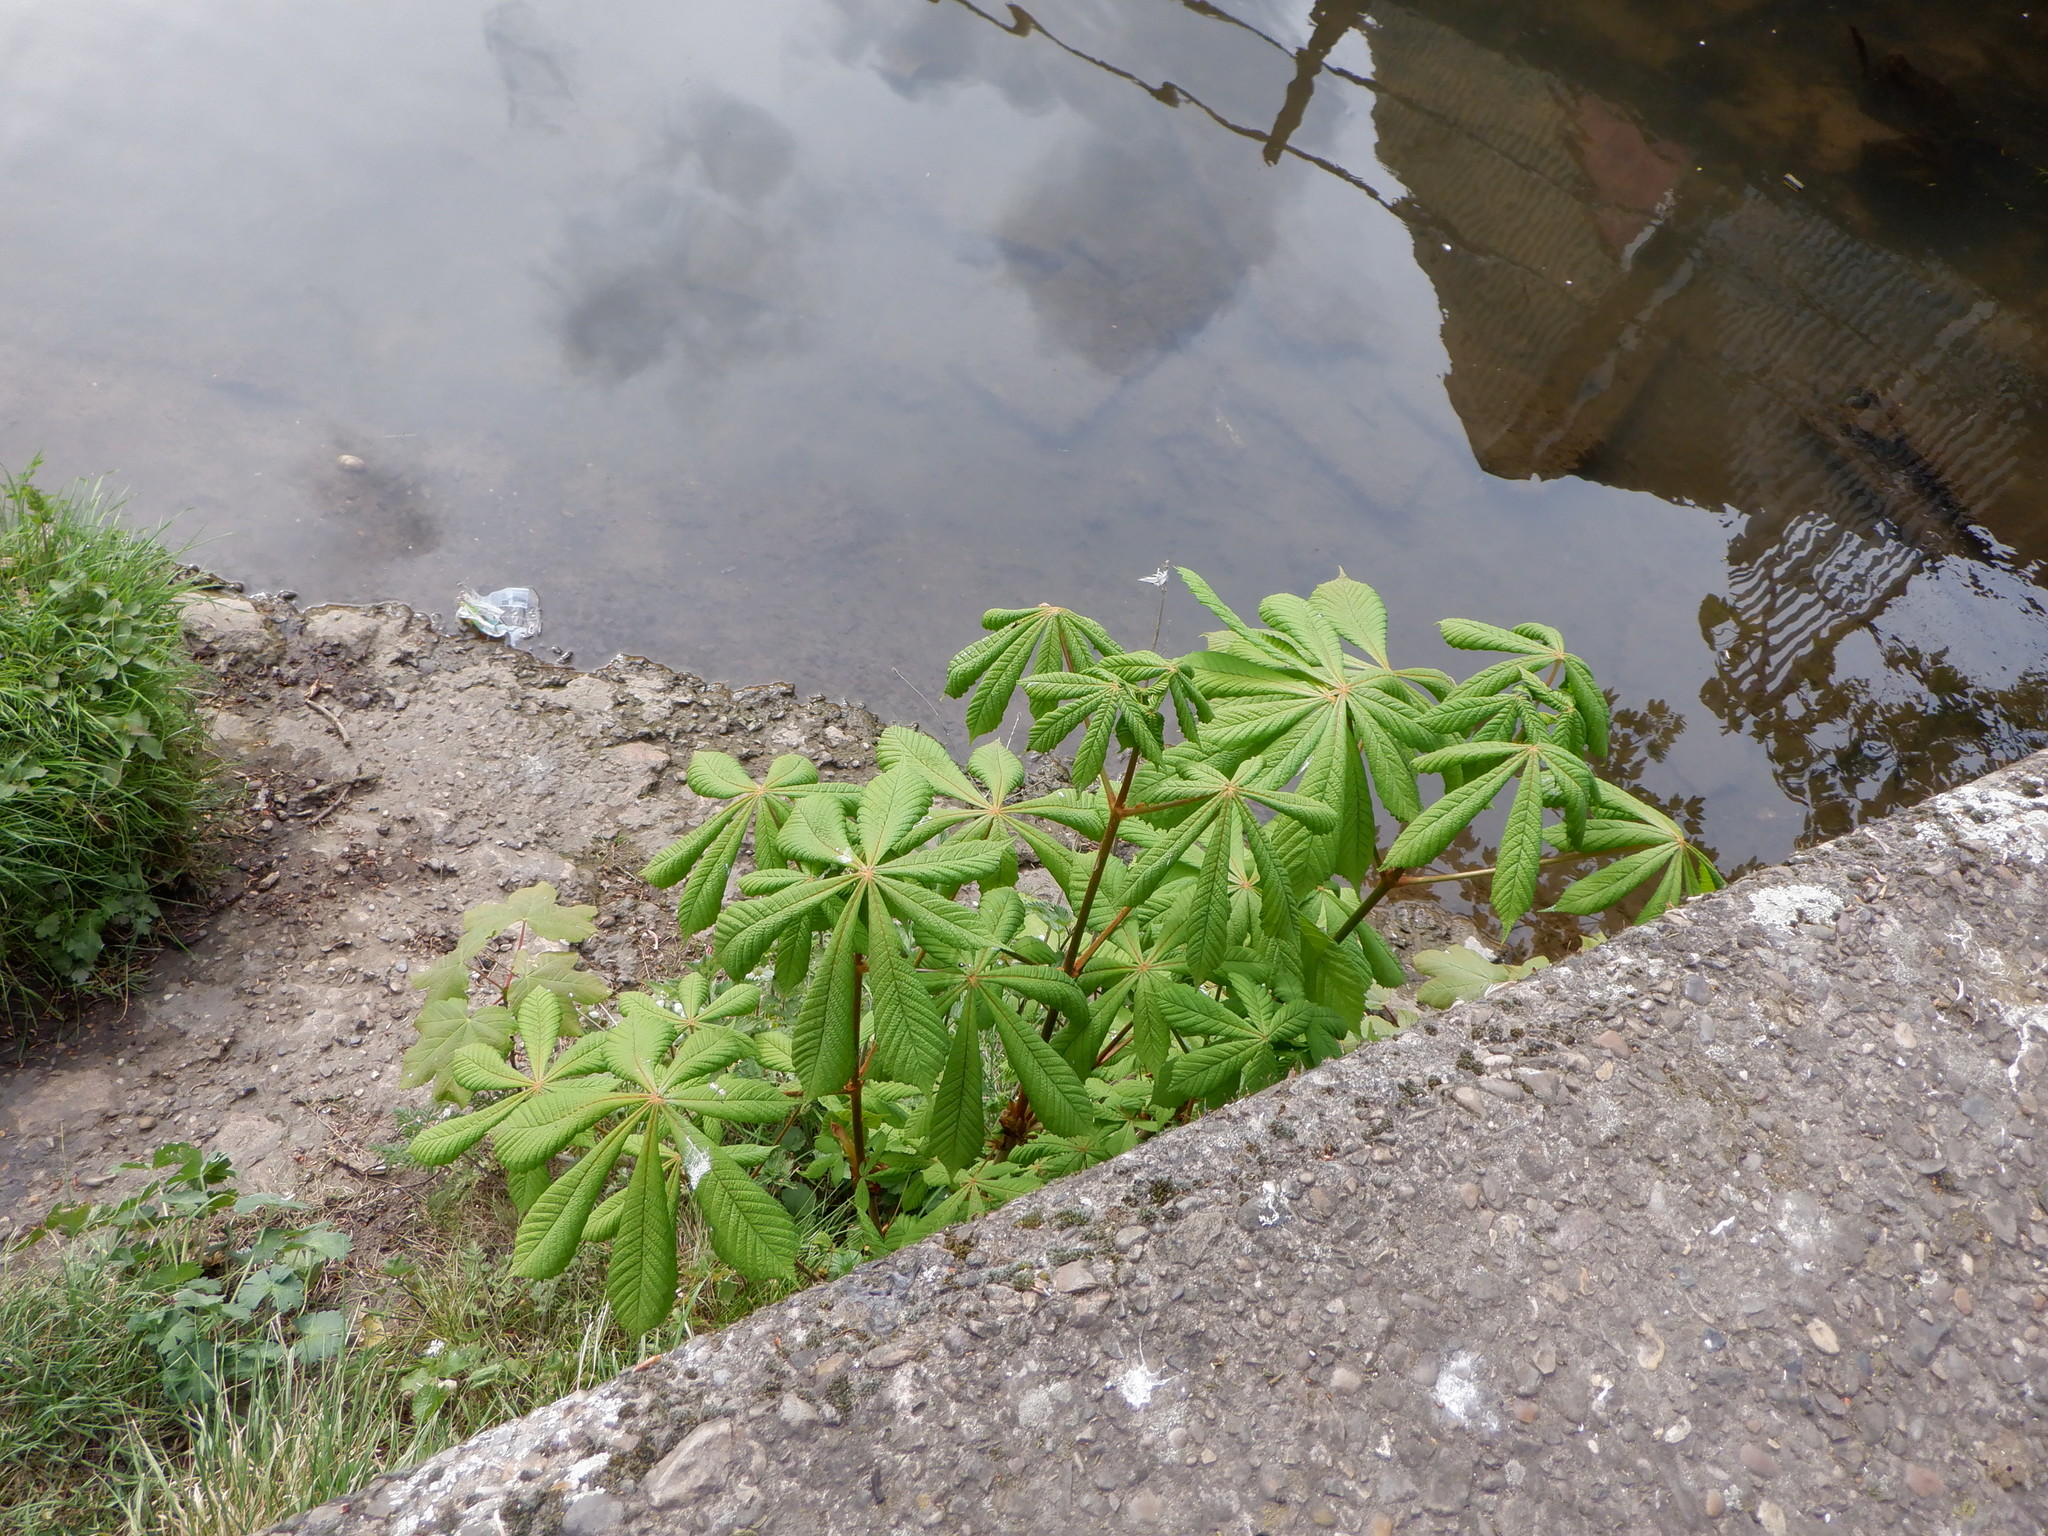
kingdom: Plantae
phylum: Tracheophyta
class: Magnoliopsida
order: Sapindales
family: Sapindaceae
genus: Aesculus
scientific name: Aesculus hippocastanum
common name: Horse-chestnut
